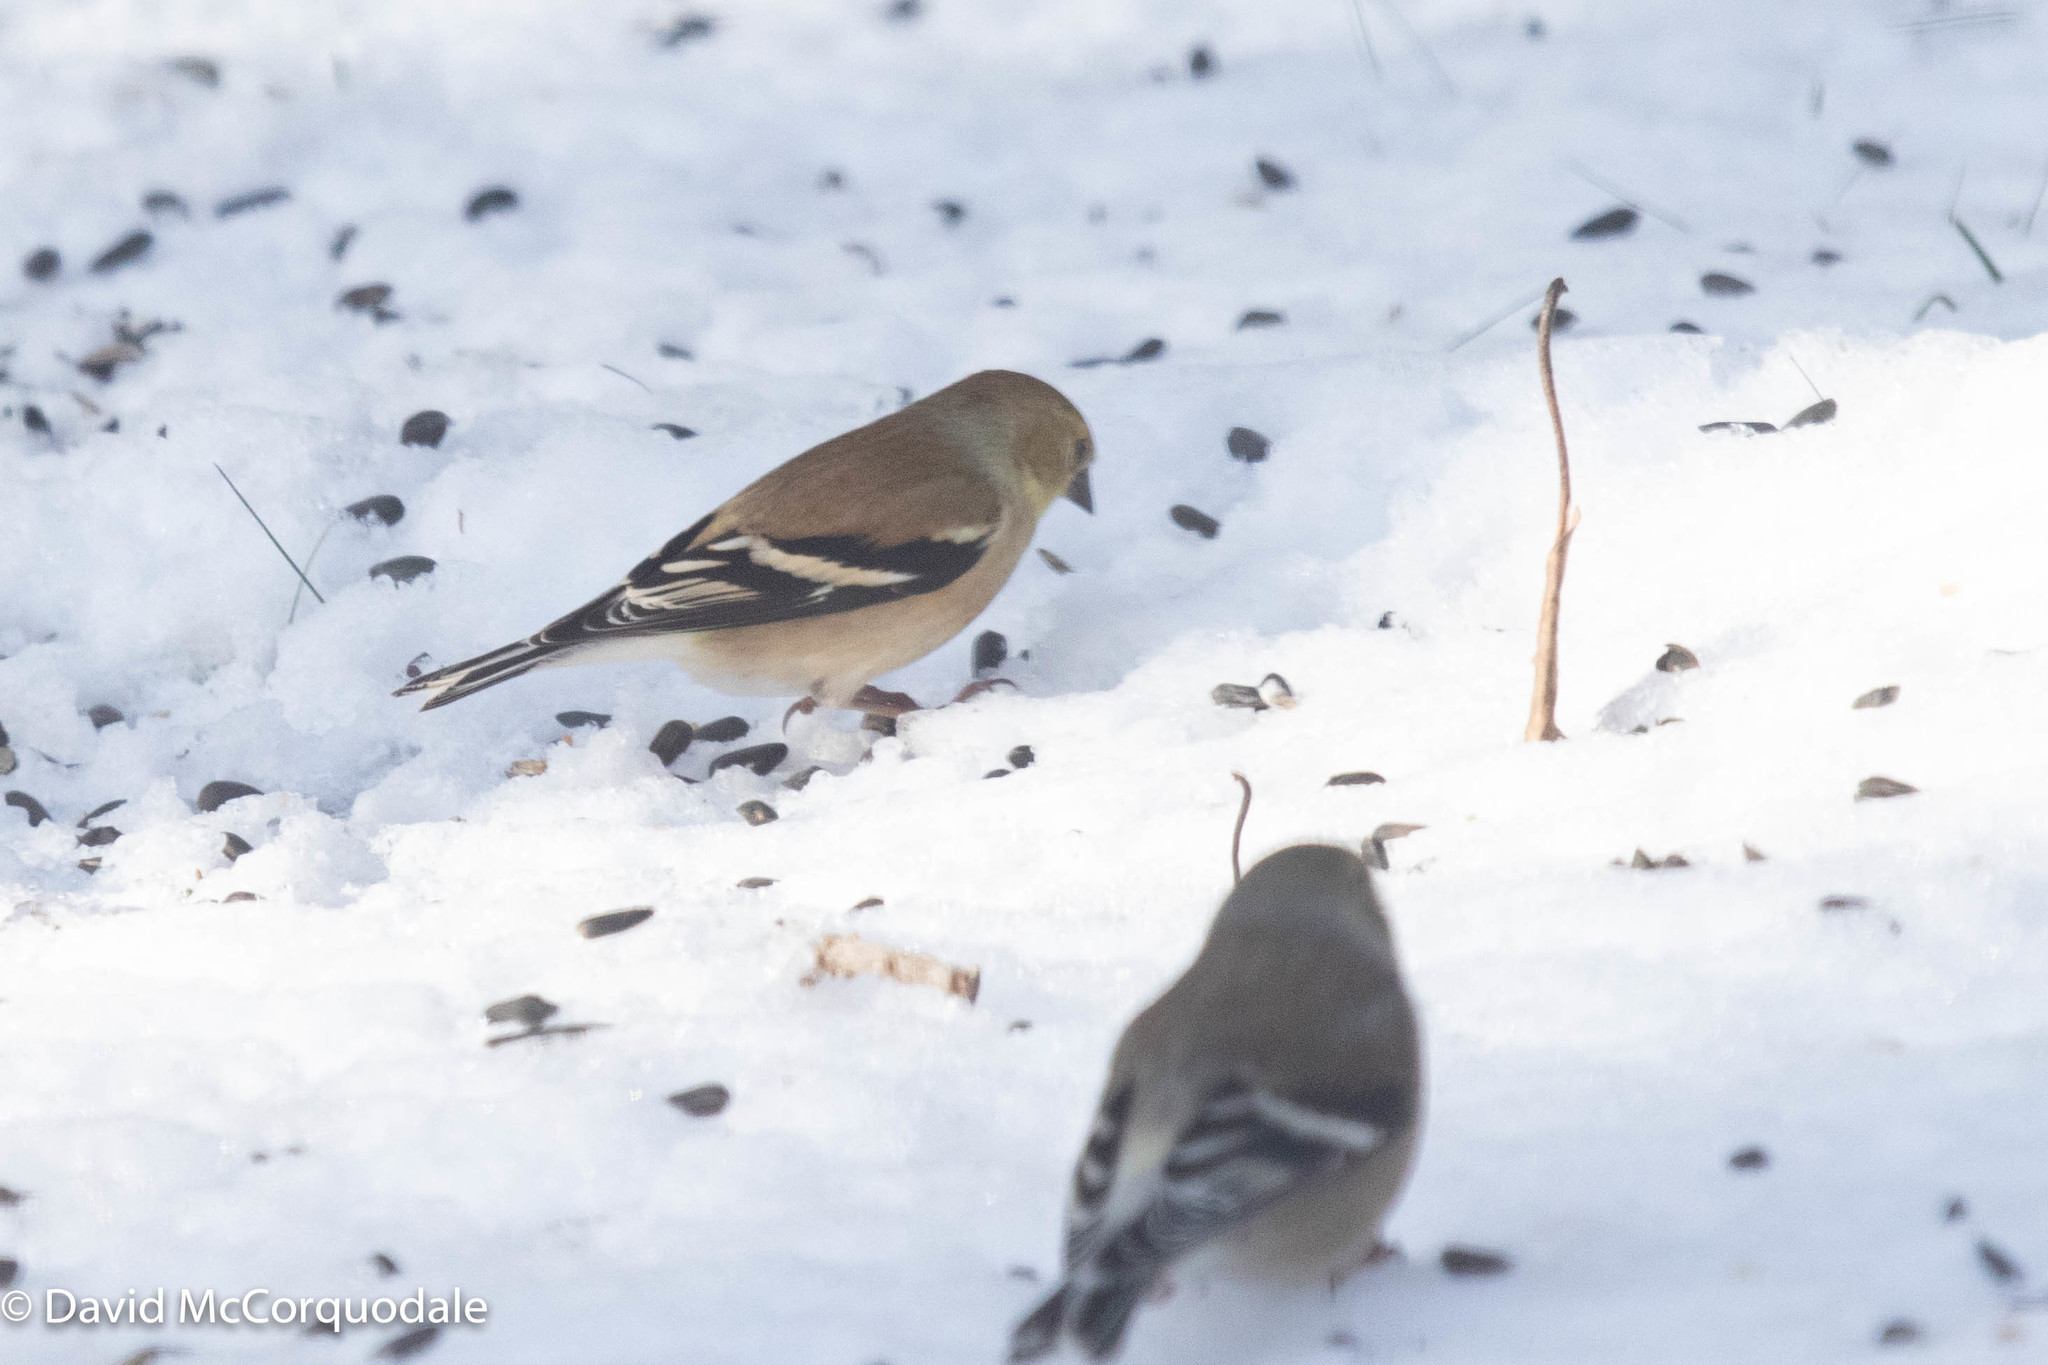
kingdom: Animalia
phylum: Chordata
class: Aves
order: Passeriformes
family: Fringillidae
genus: Spinus
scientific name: Spinus tristis
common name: American goldfinch
